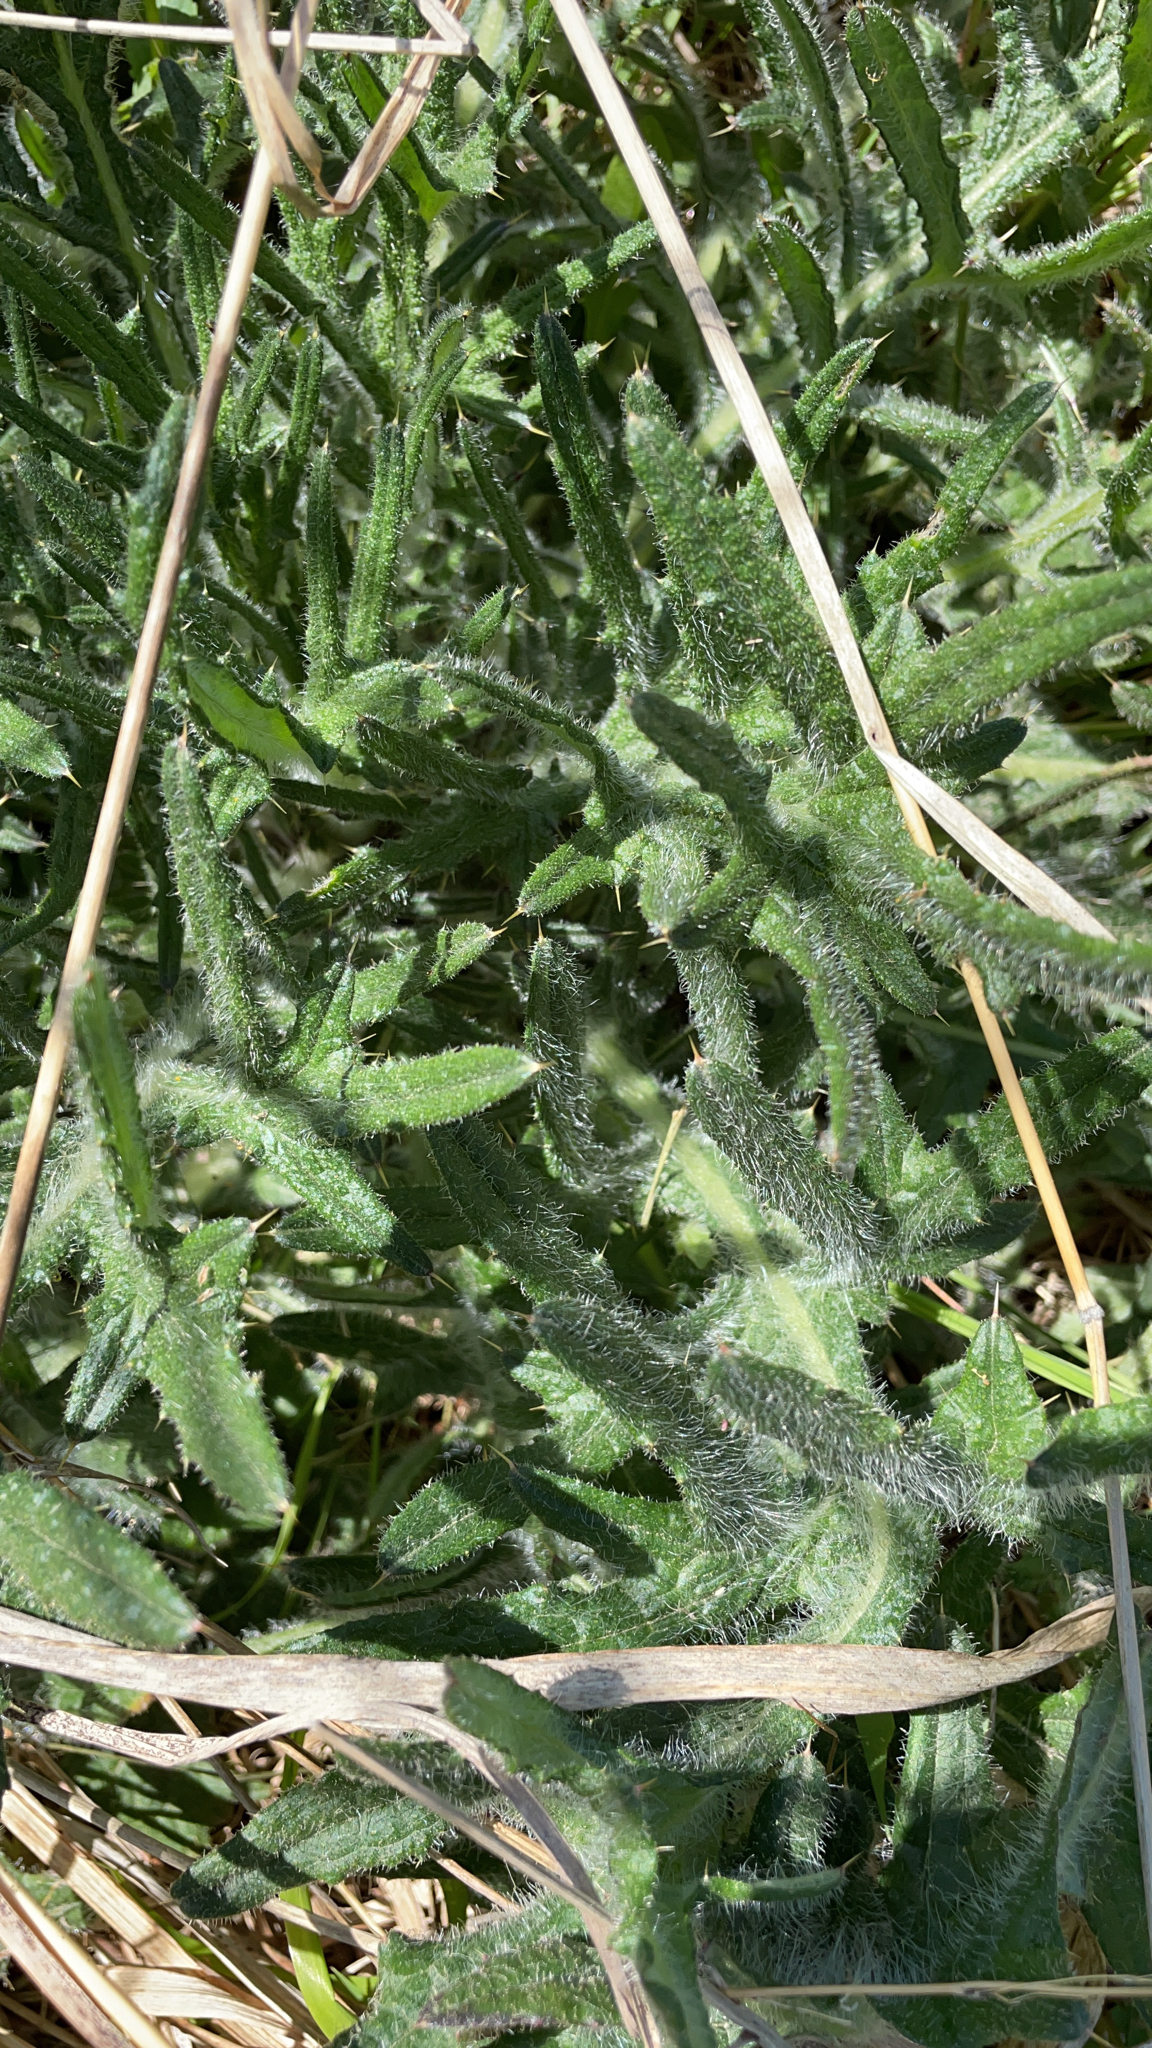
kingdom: Plantae
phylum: Tracheophyta
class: Magnoliopsida
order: Asterales
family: Asteraceae
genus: Cirsium
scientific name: Cirsium vulgare
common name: Bull thistle
